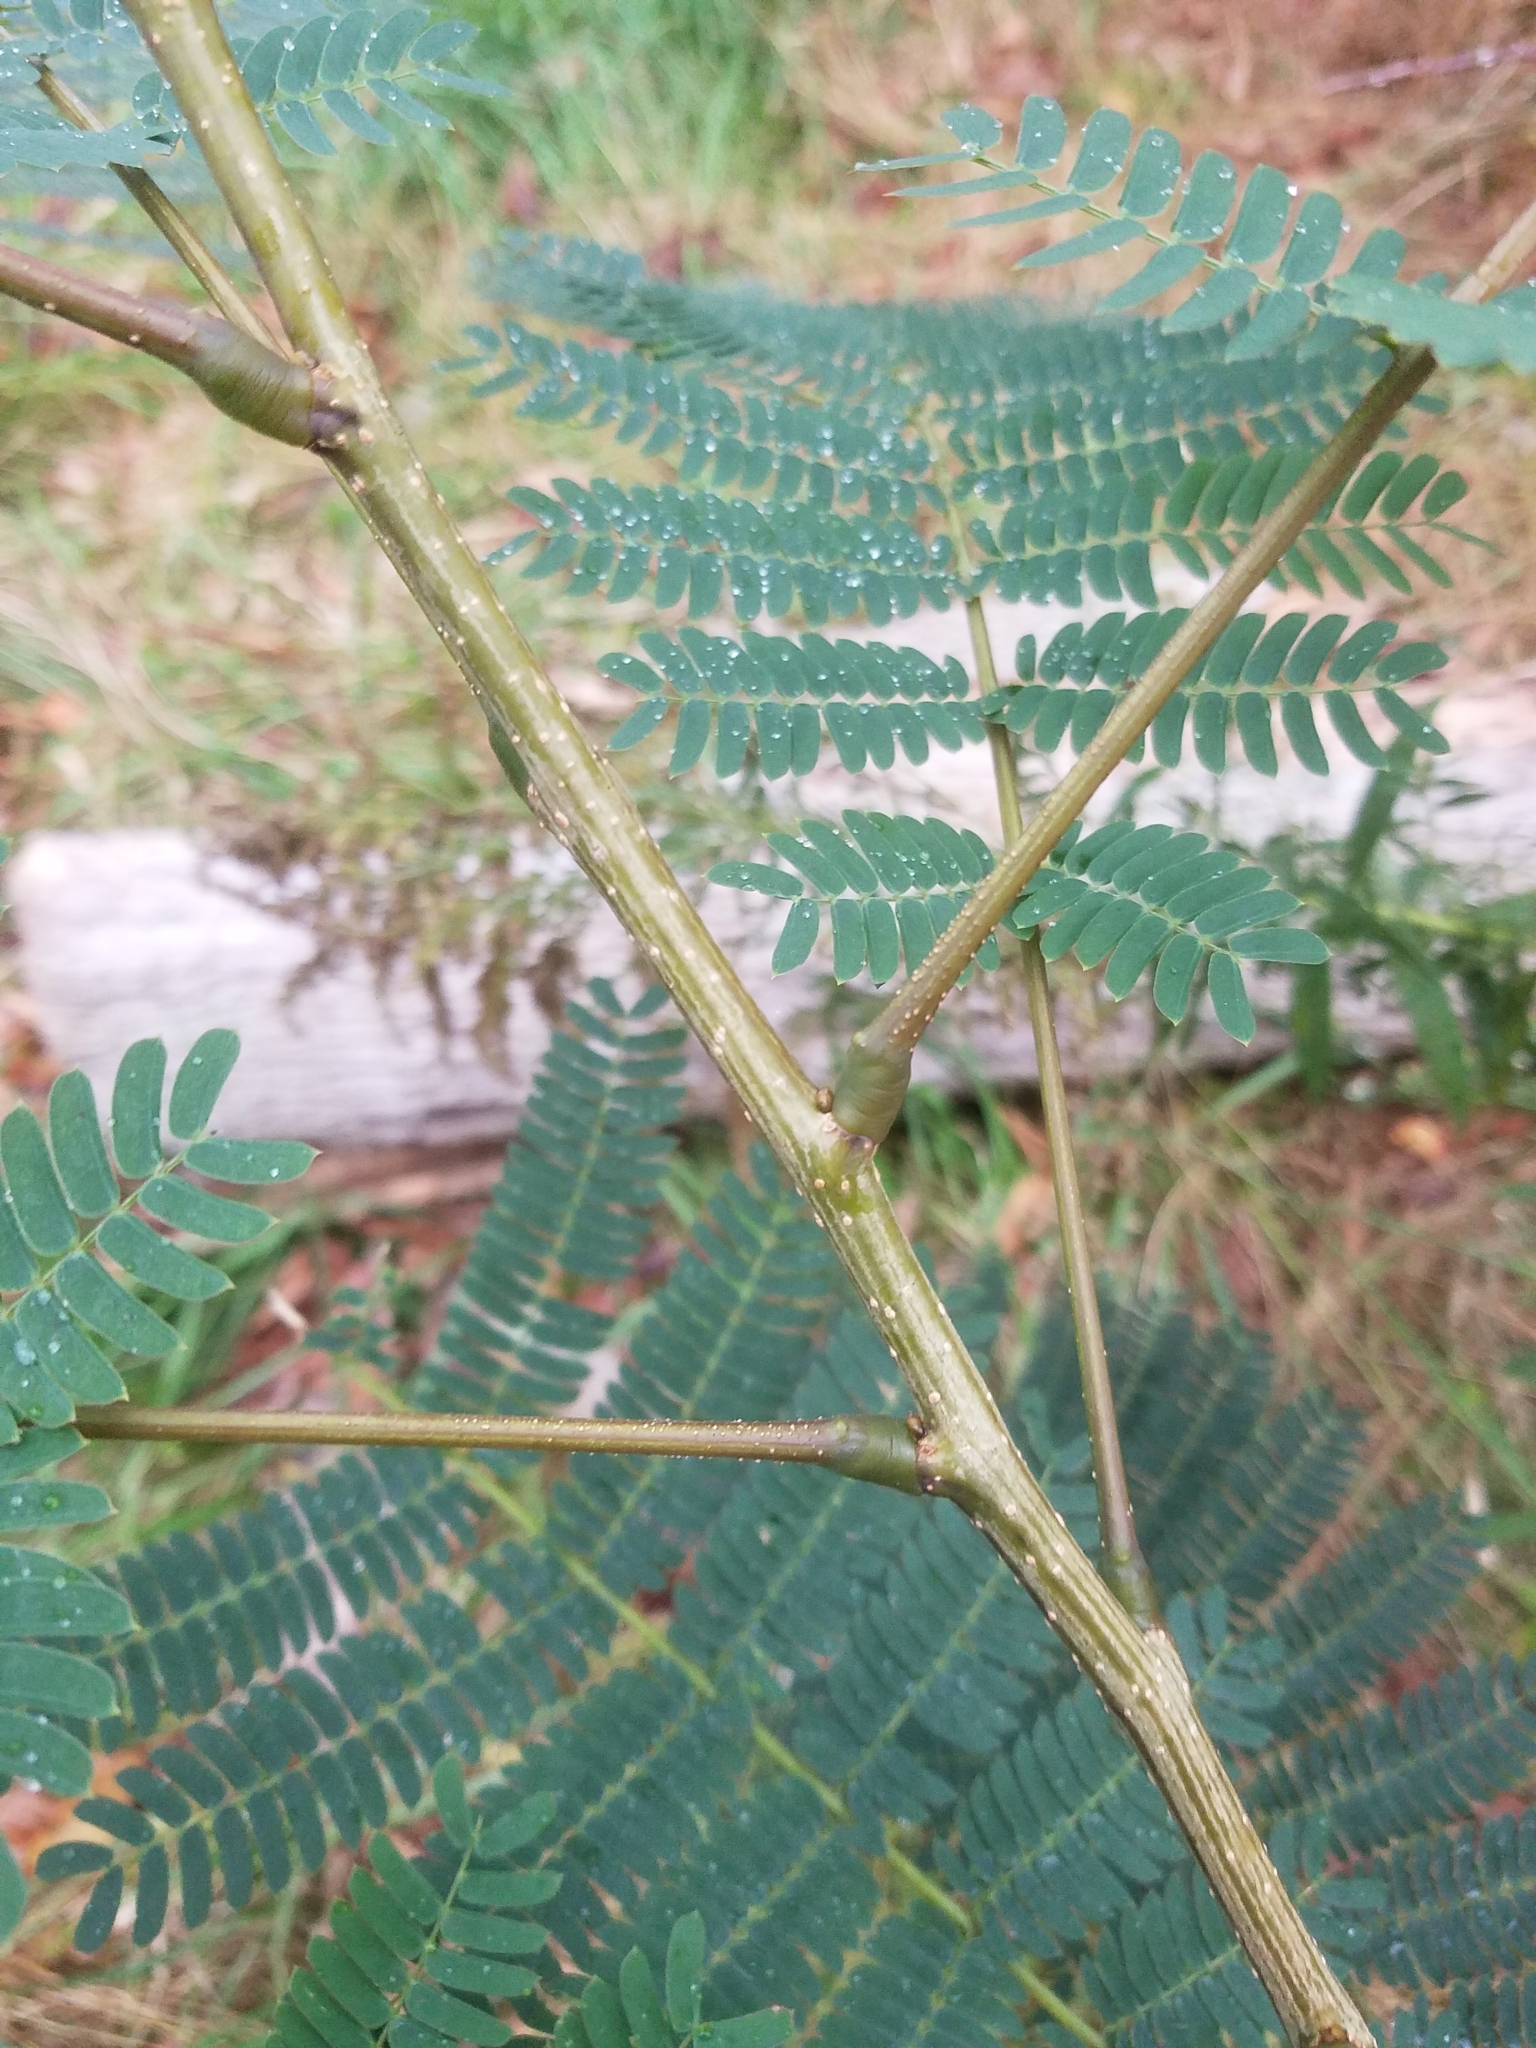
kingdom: Plantae
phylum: Tracheophyta
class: Magnoliopsida
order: Fabales
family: Fabaceae
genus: Albizia
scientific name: Albizia julibrissin
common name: Silktree
